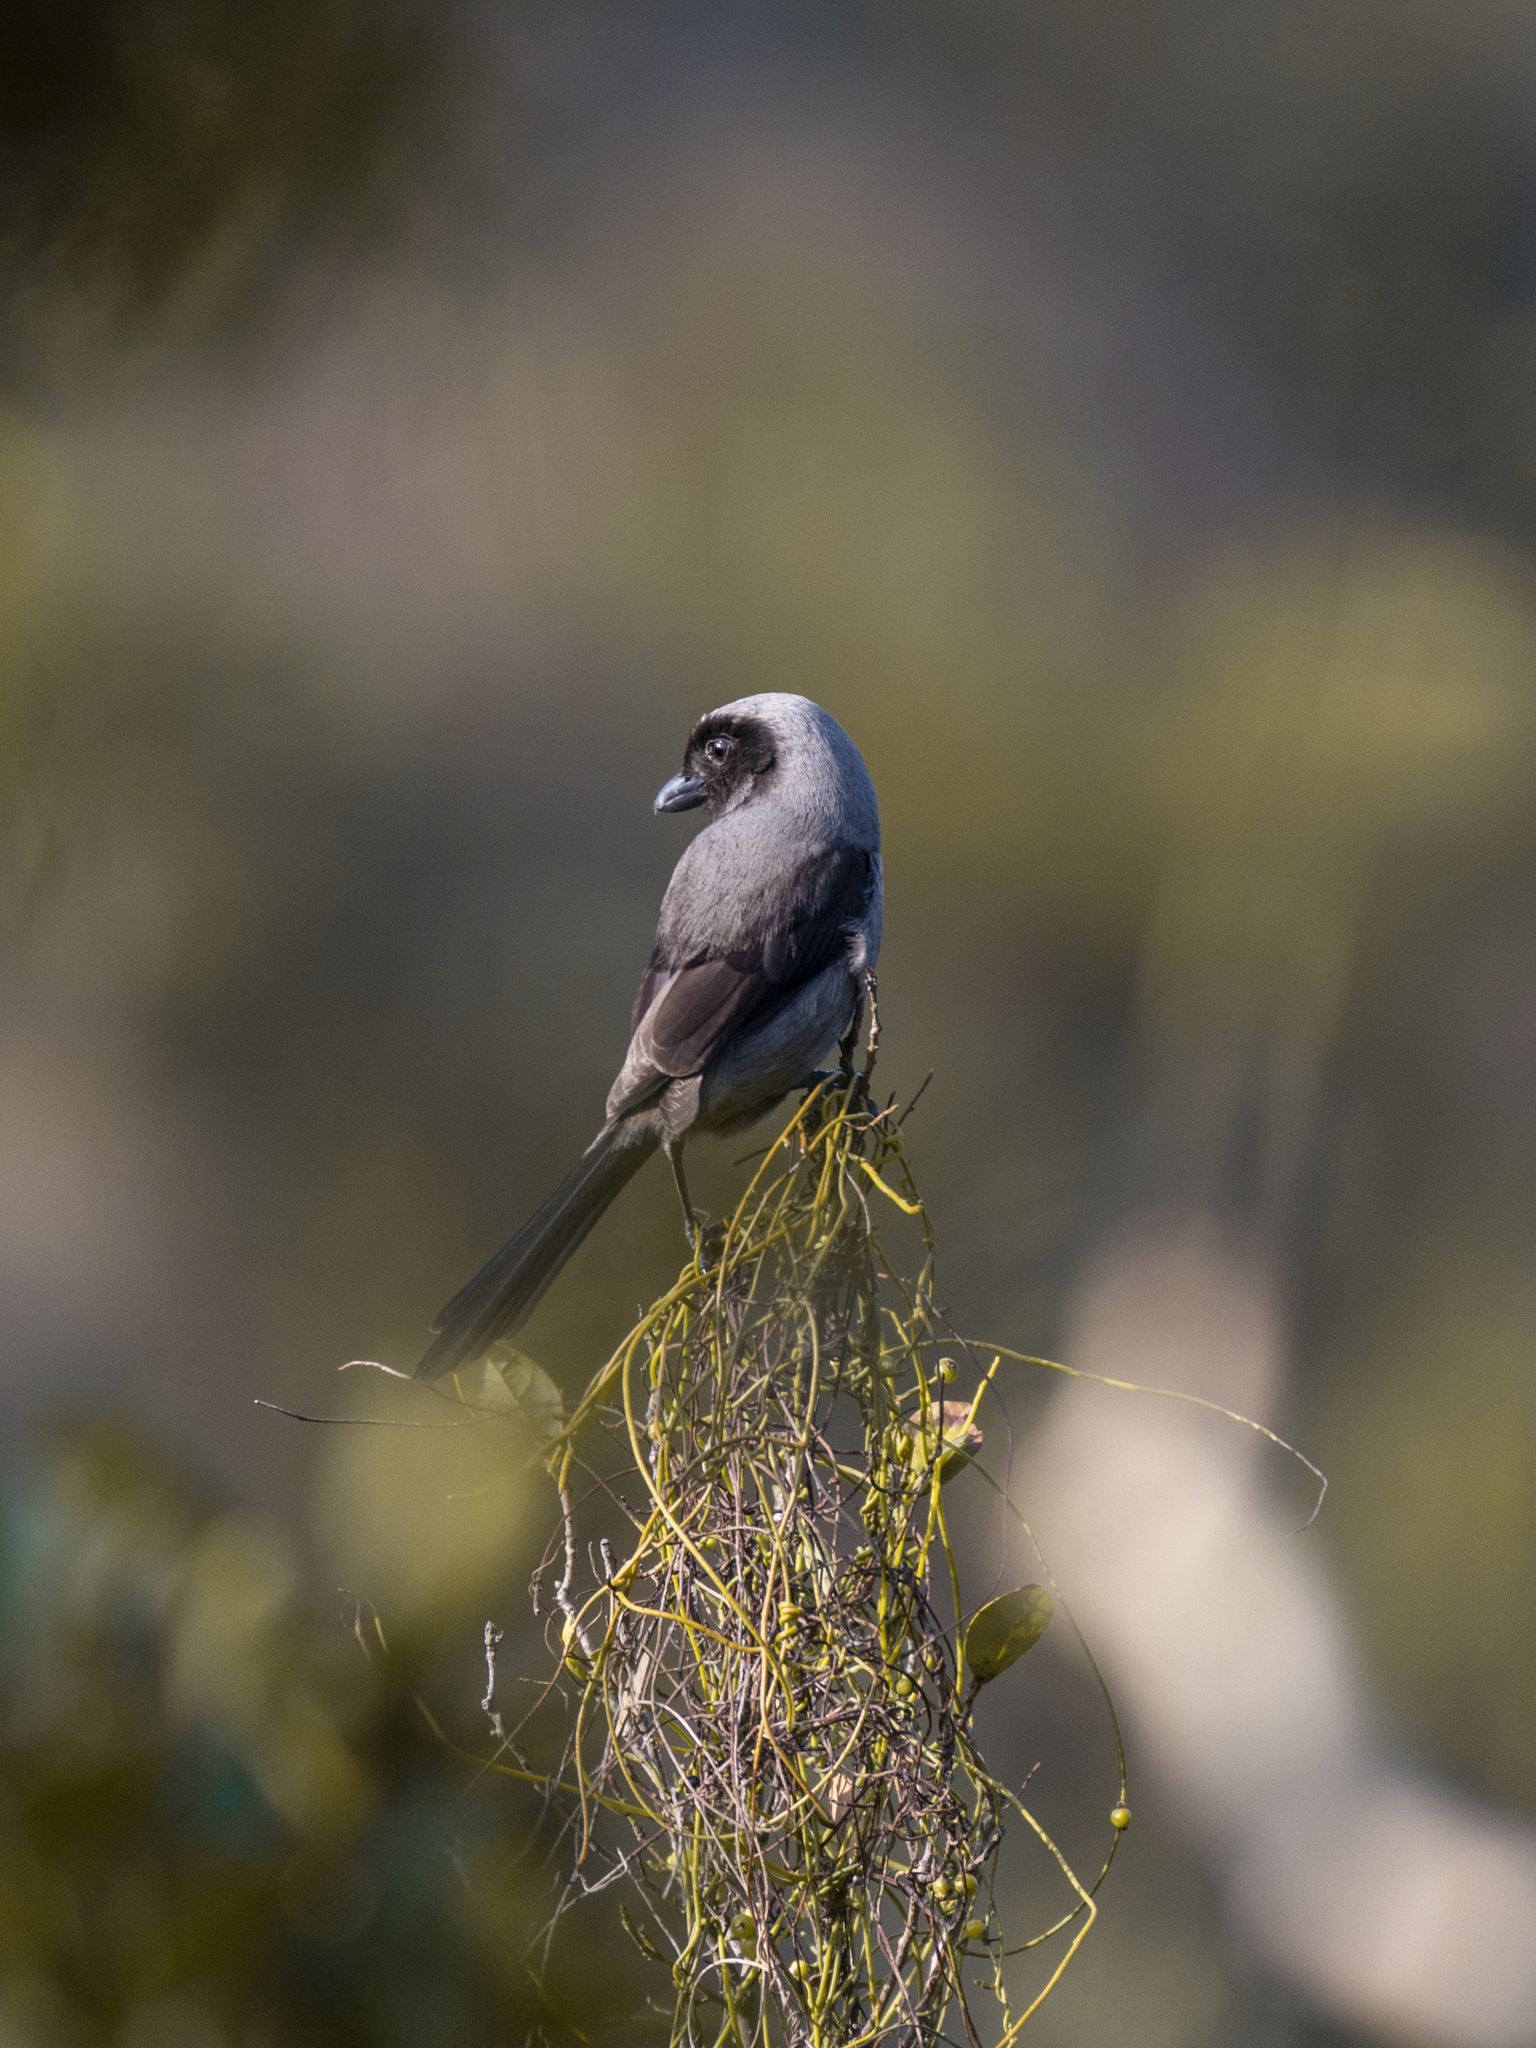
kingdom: Animalia
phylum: Chordata
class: Aves
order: Passeriformes
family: Laniidae
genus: Lanius
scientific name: Lanius schach
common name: Long-tailed shrike
